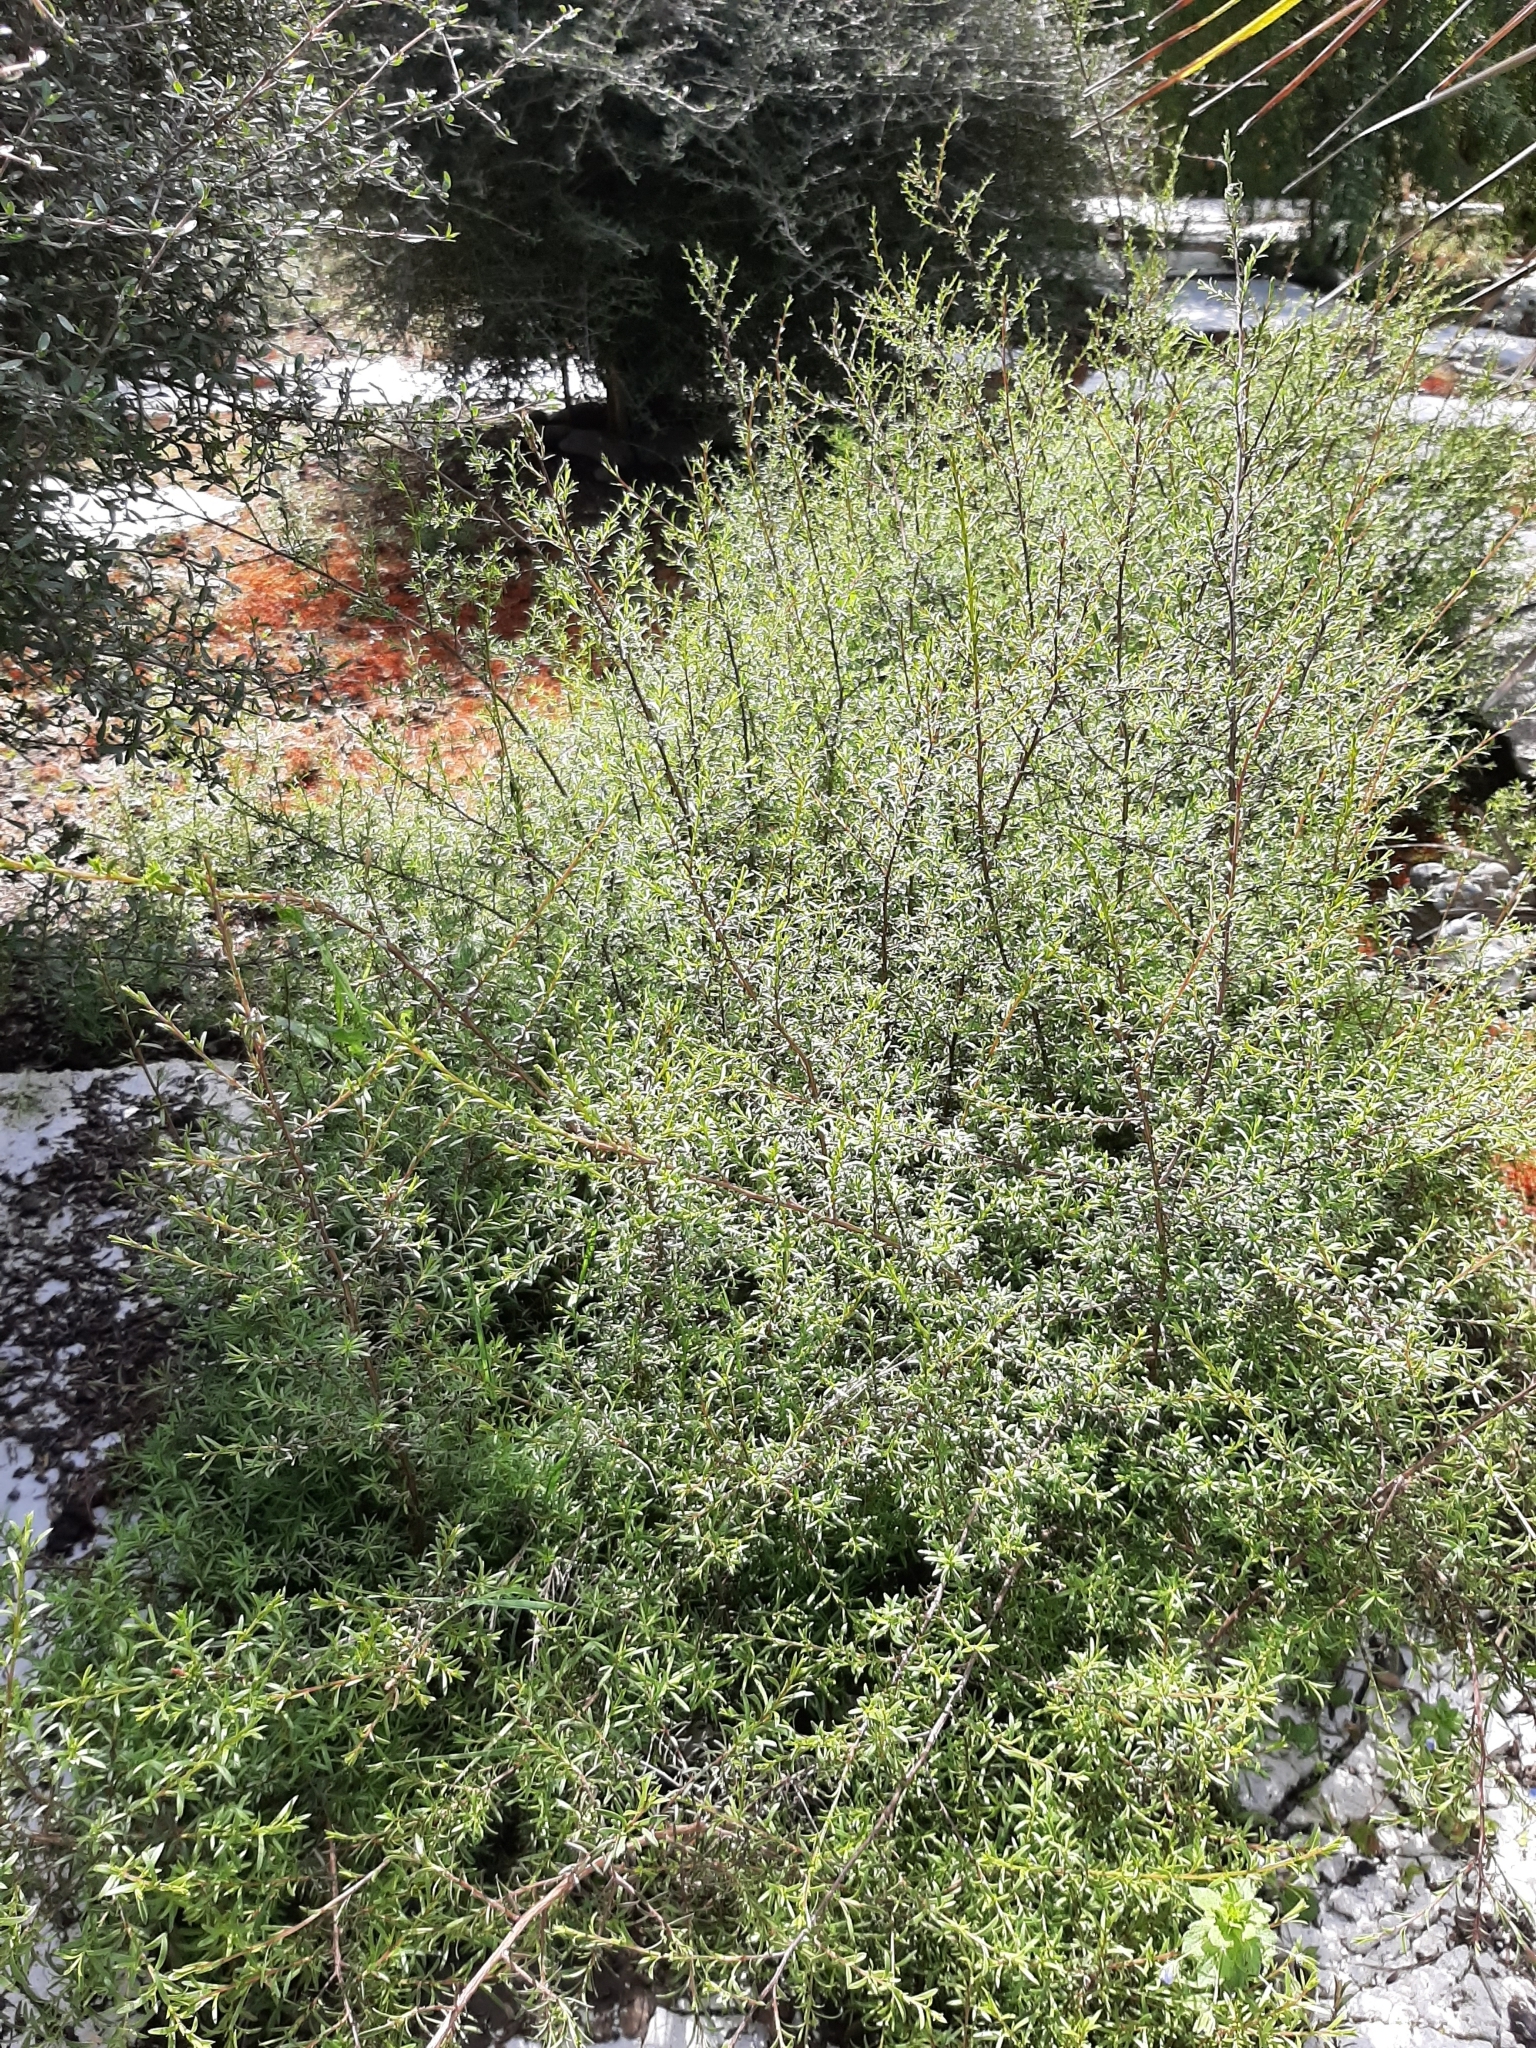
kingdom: Plantae
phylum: Tracheophyta
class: Magnoliopsida
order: Myrtales
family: Myrtaceae
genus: Kunzea
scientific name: Kunzea robusta
